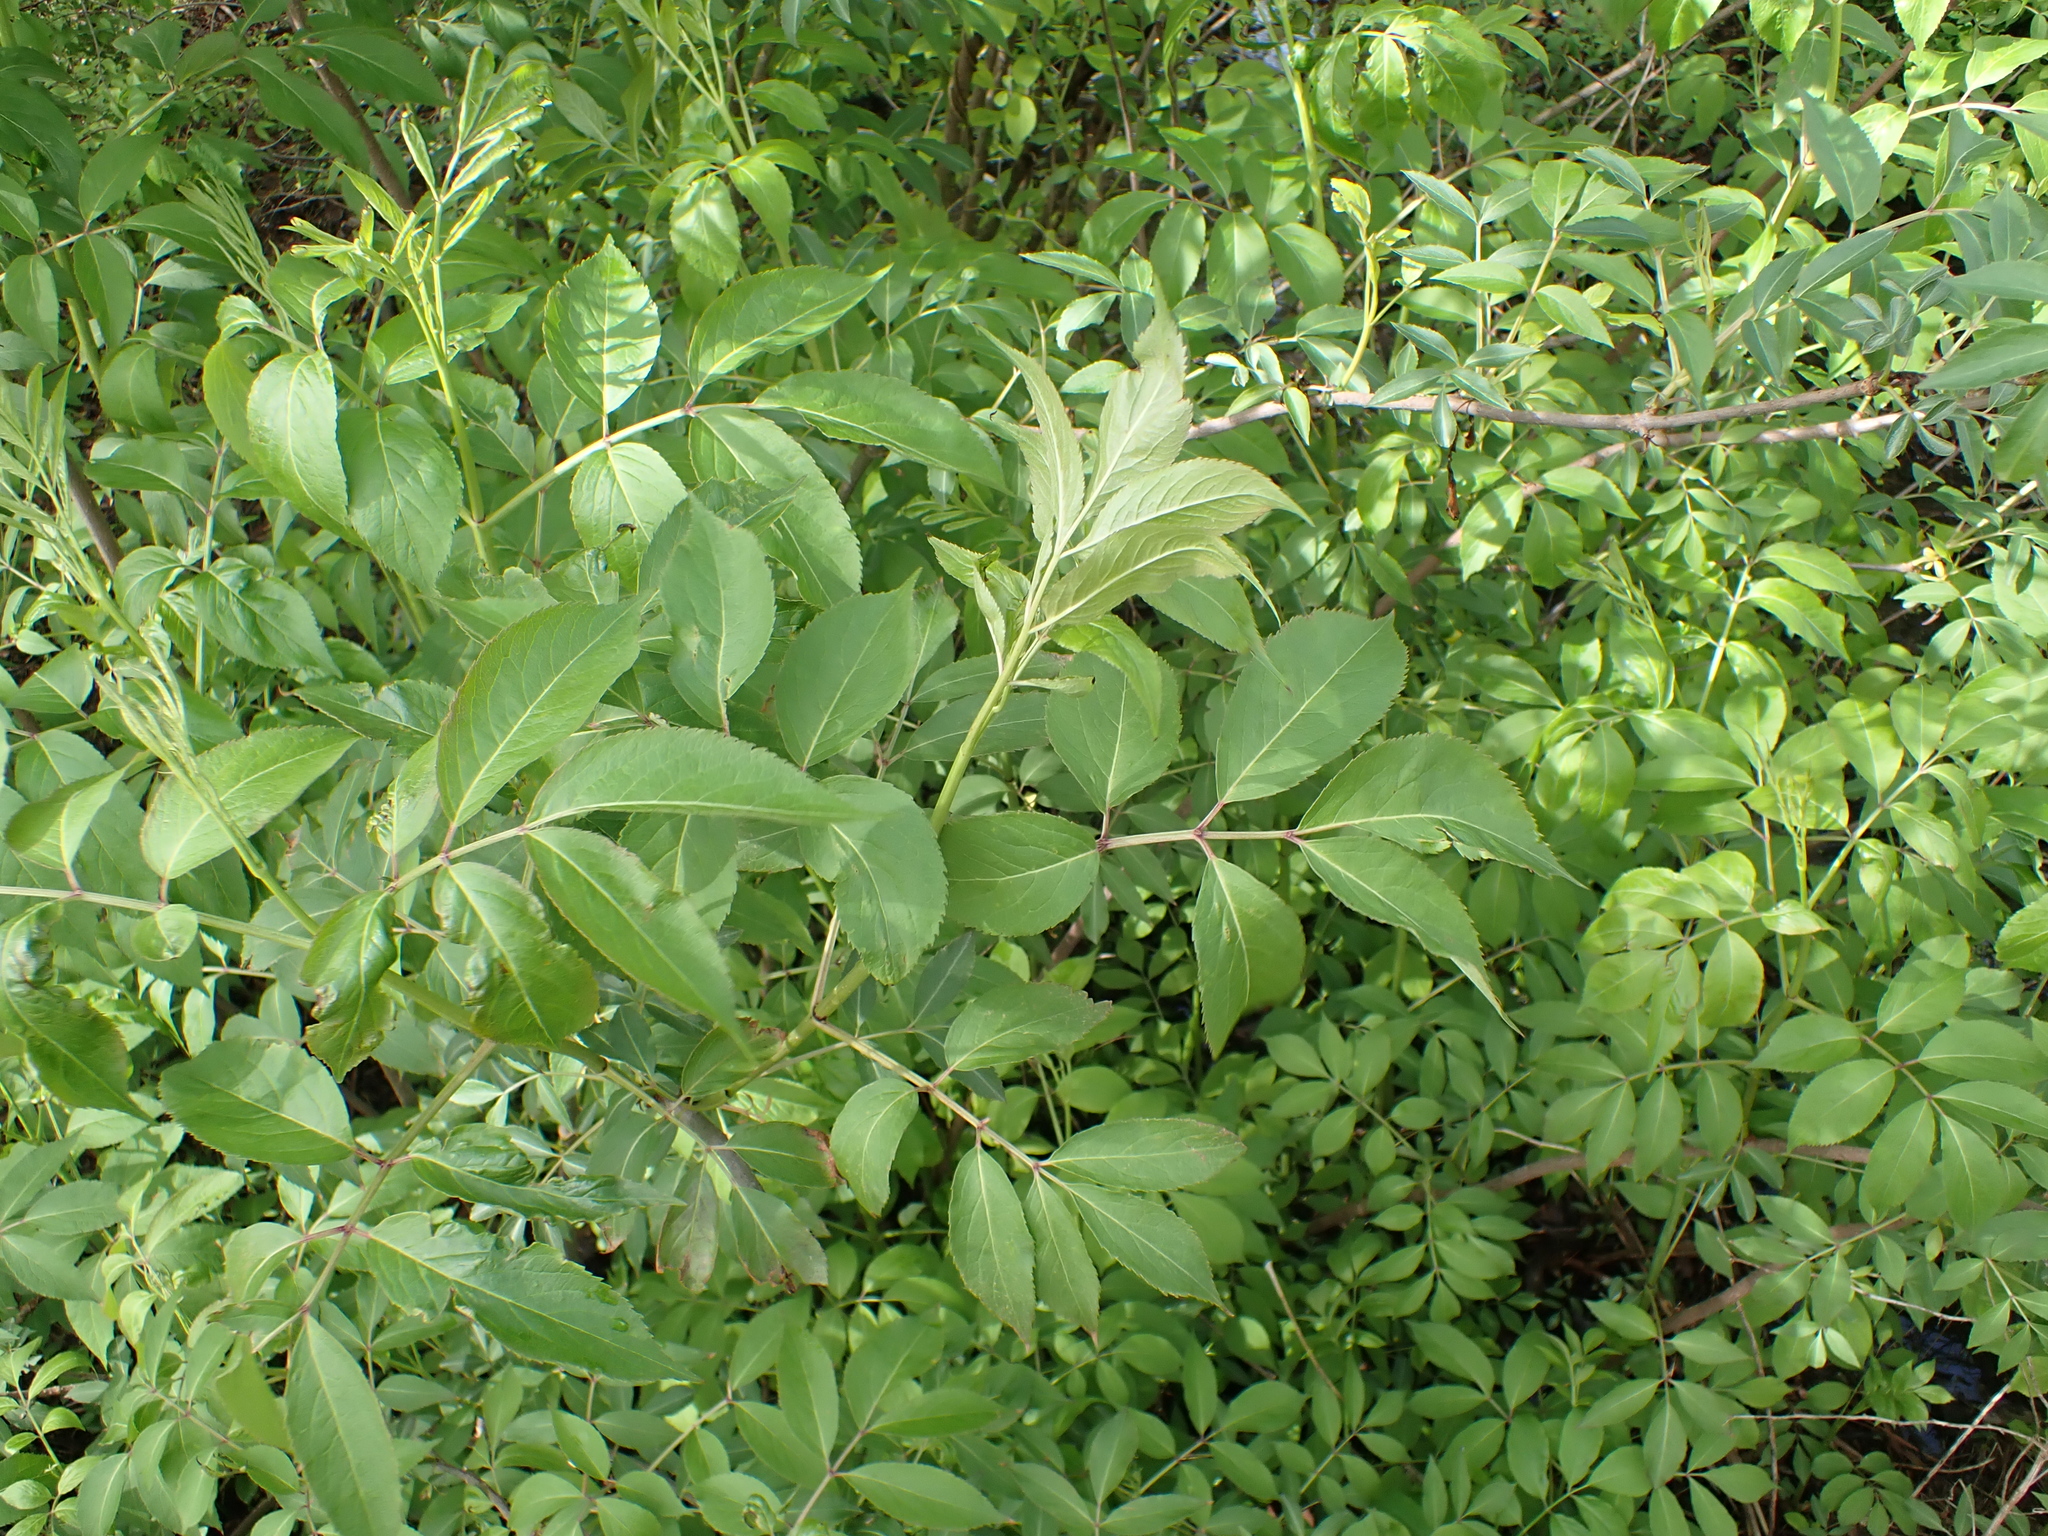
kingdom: Plantae
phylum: Tracheophyta
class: Magnoliopsida
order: Dipsacales
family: Viburnaceae
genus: Sambucus
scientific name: Sambucus canadensis
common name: American elder
